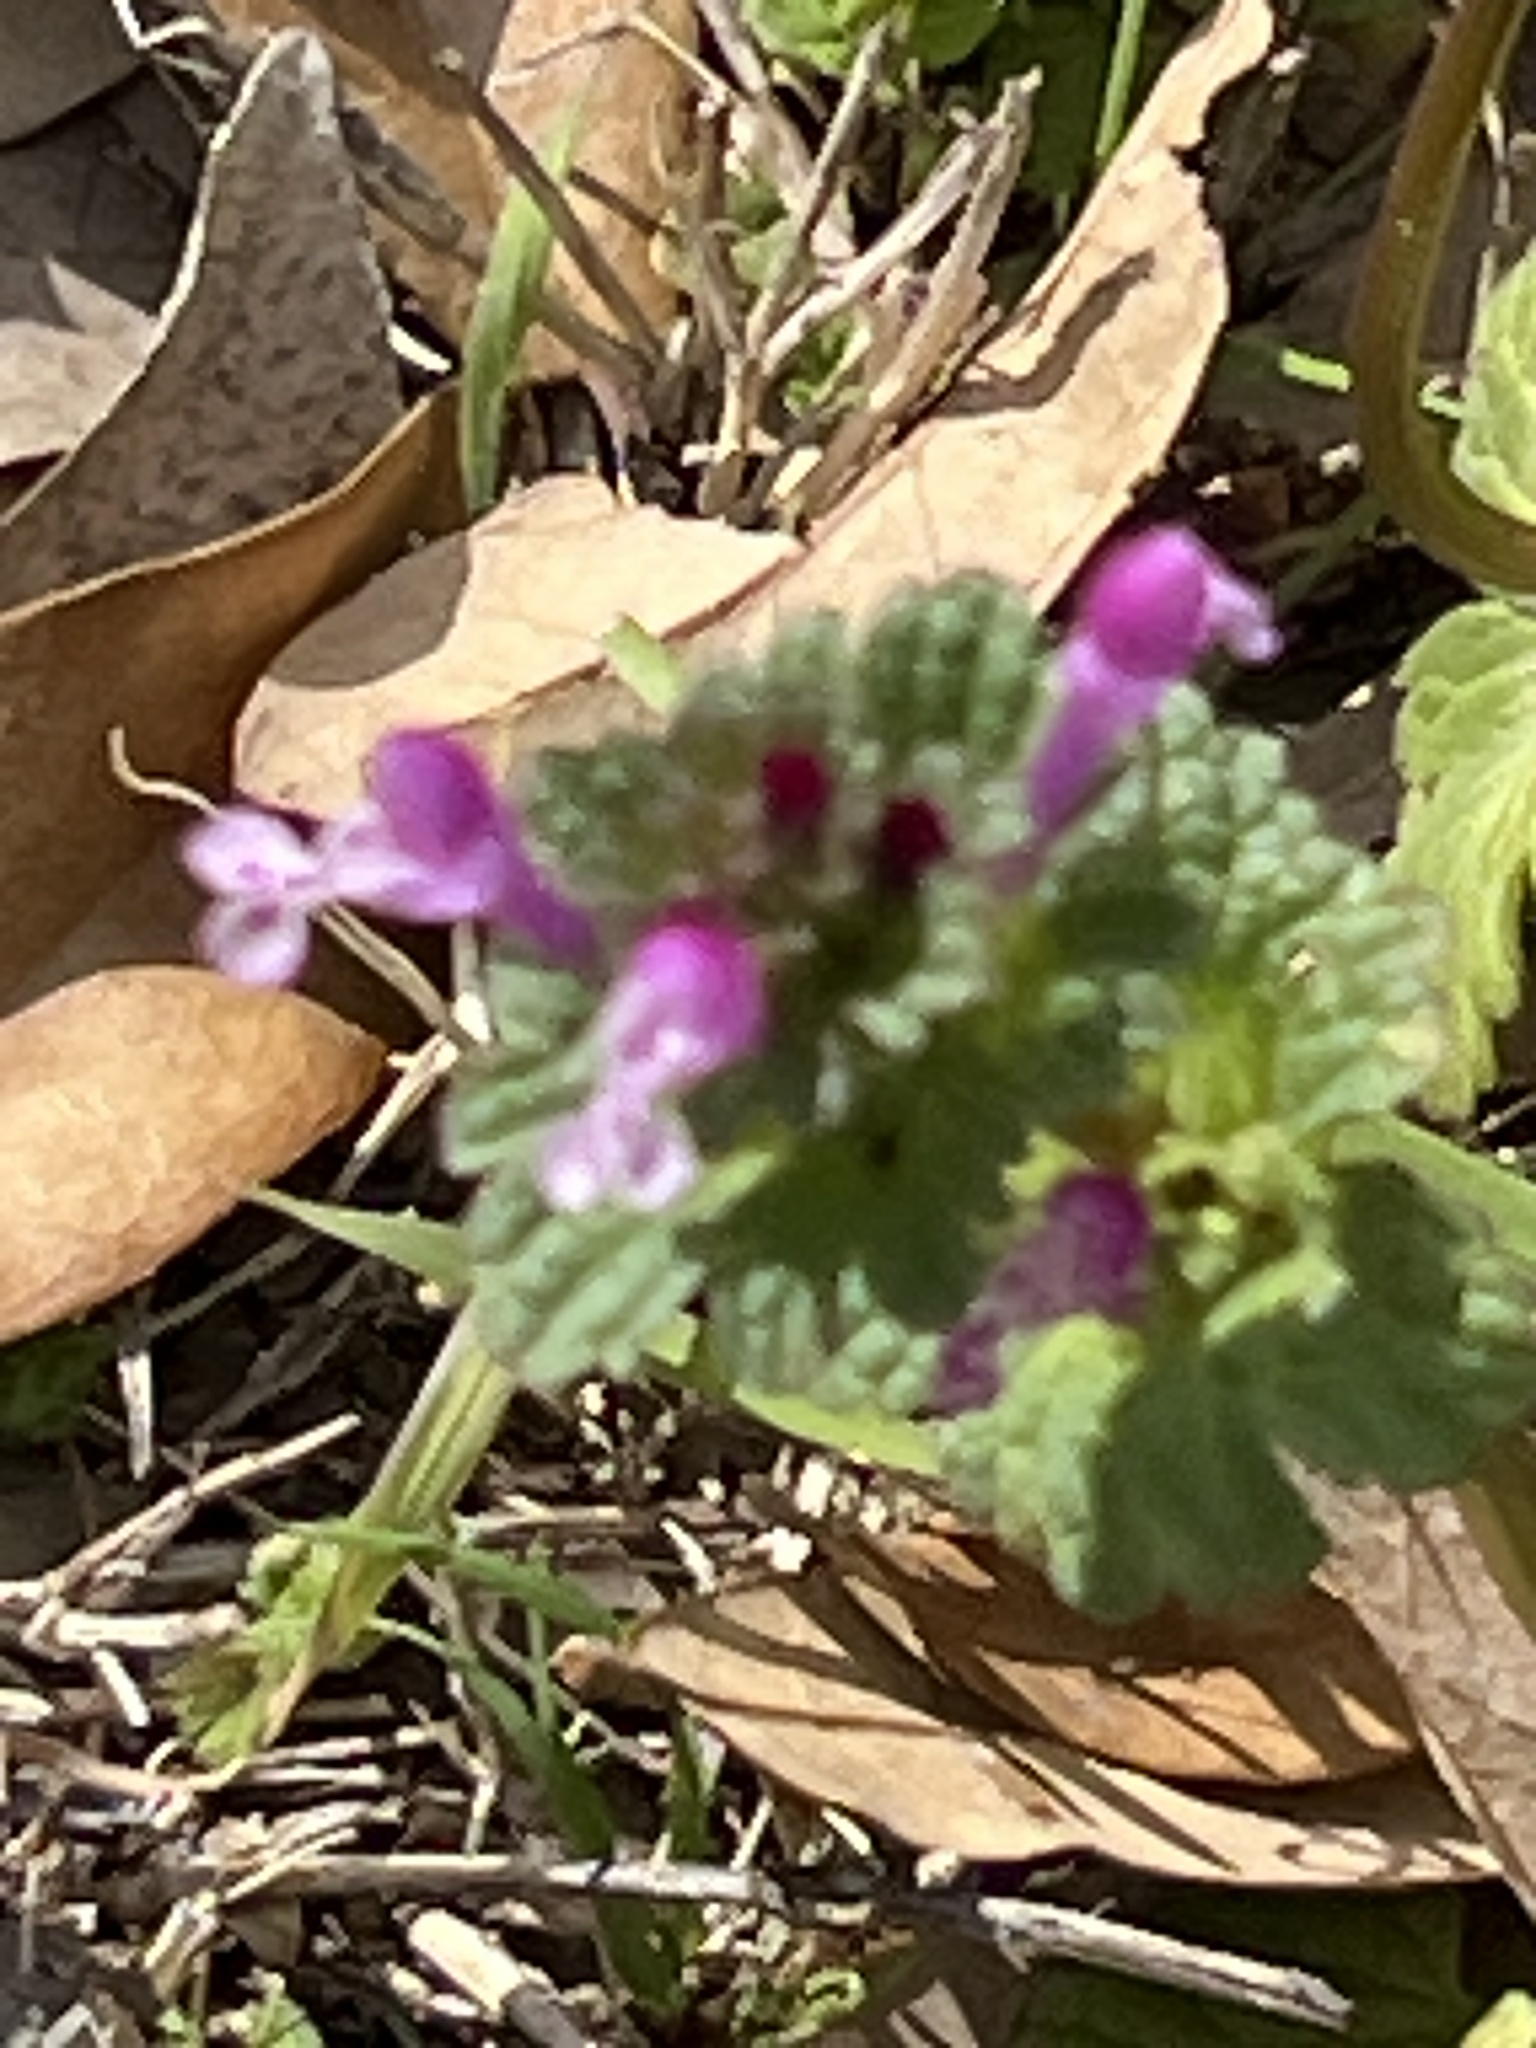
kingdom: Plantae
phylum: Tracheophyta
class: Magnoliopsida
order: Lamiales
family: Lamiaceae
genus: Lamium
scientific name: Lamium amplexicaule
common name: Henbit dead-nettle
